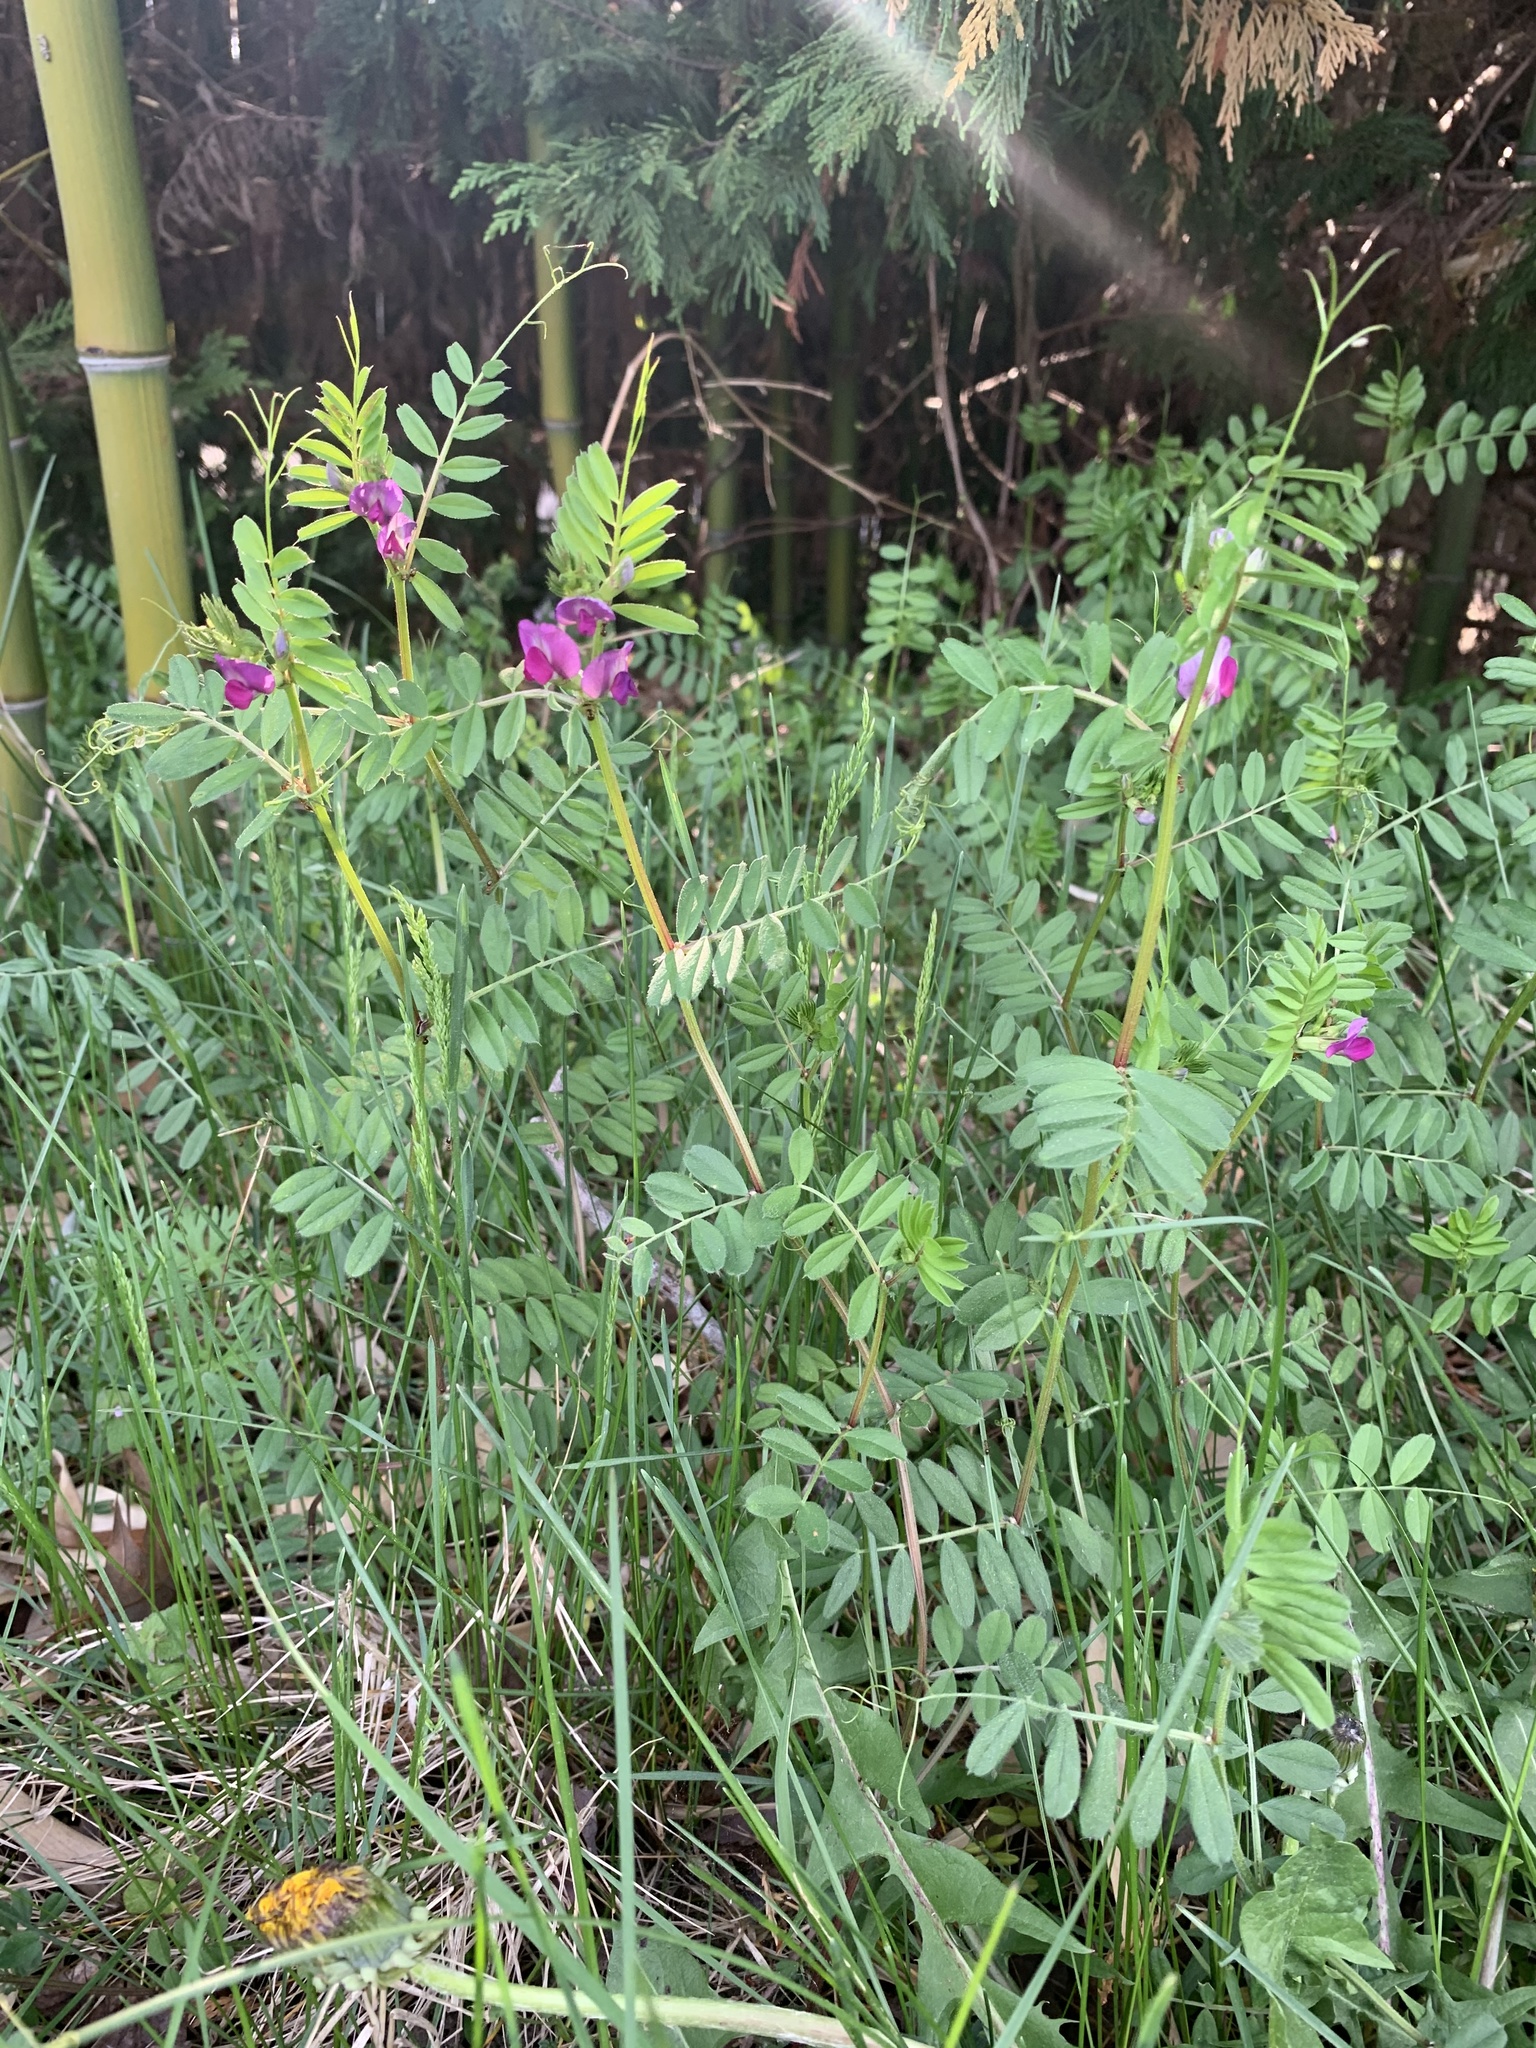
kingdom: Plantae
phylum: Tracheophyta
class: Magnoliopsida
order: Fabales
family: Fabaceae
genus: Vicia
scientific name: Vicia sativa
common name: Garden vetch
